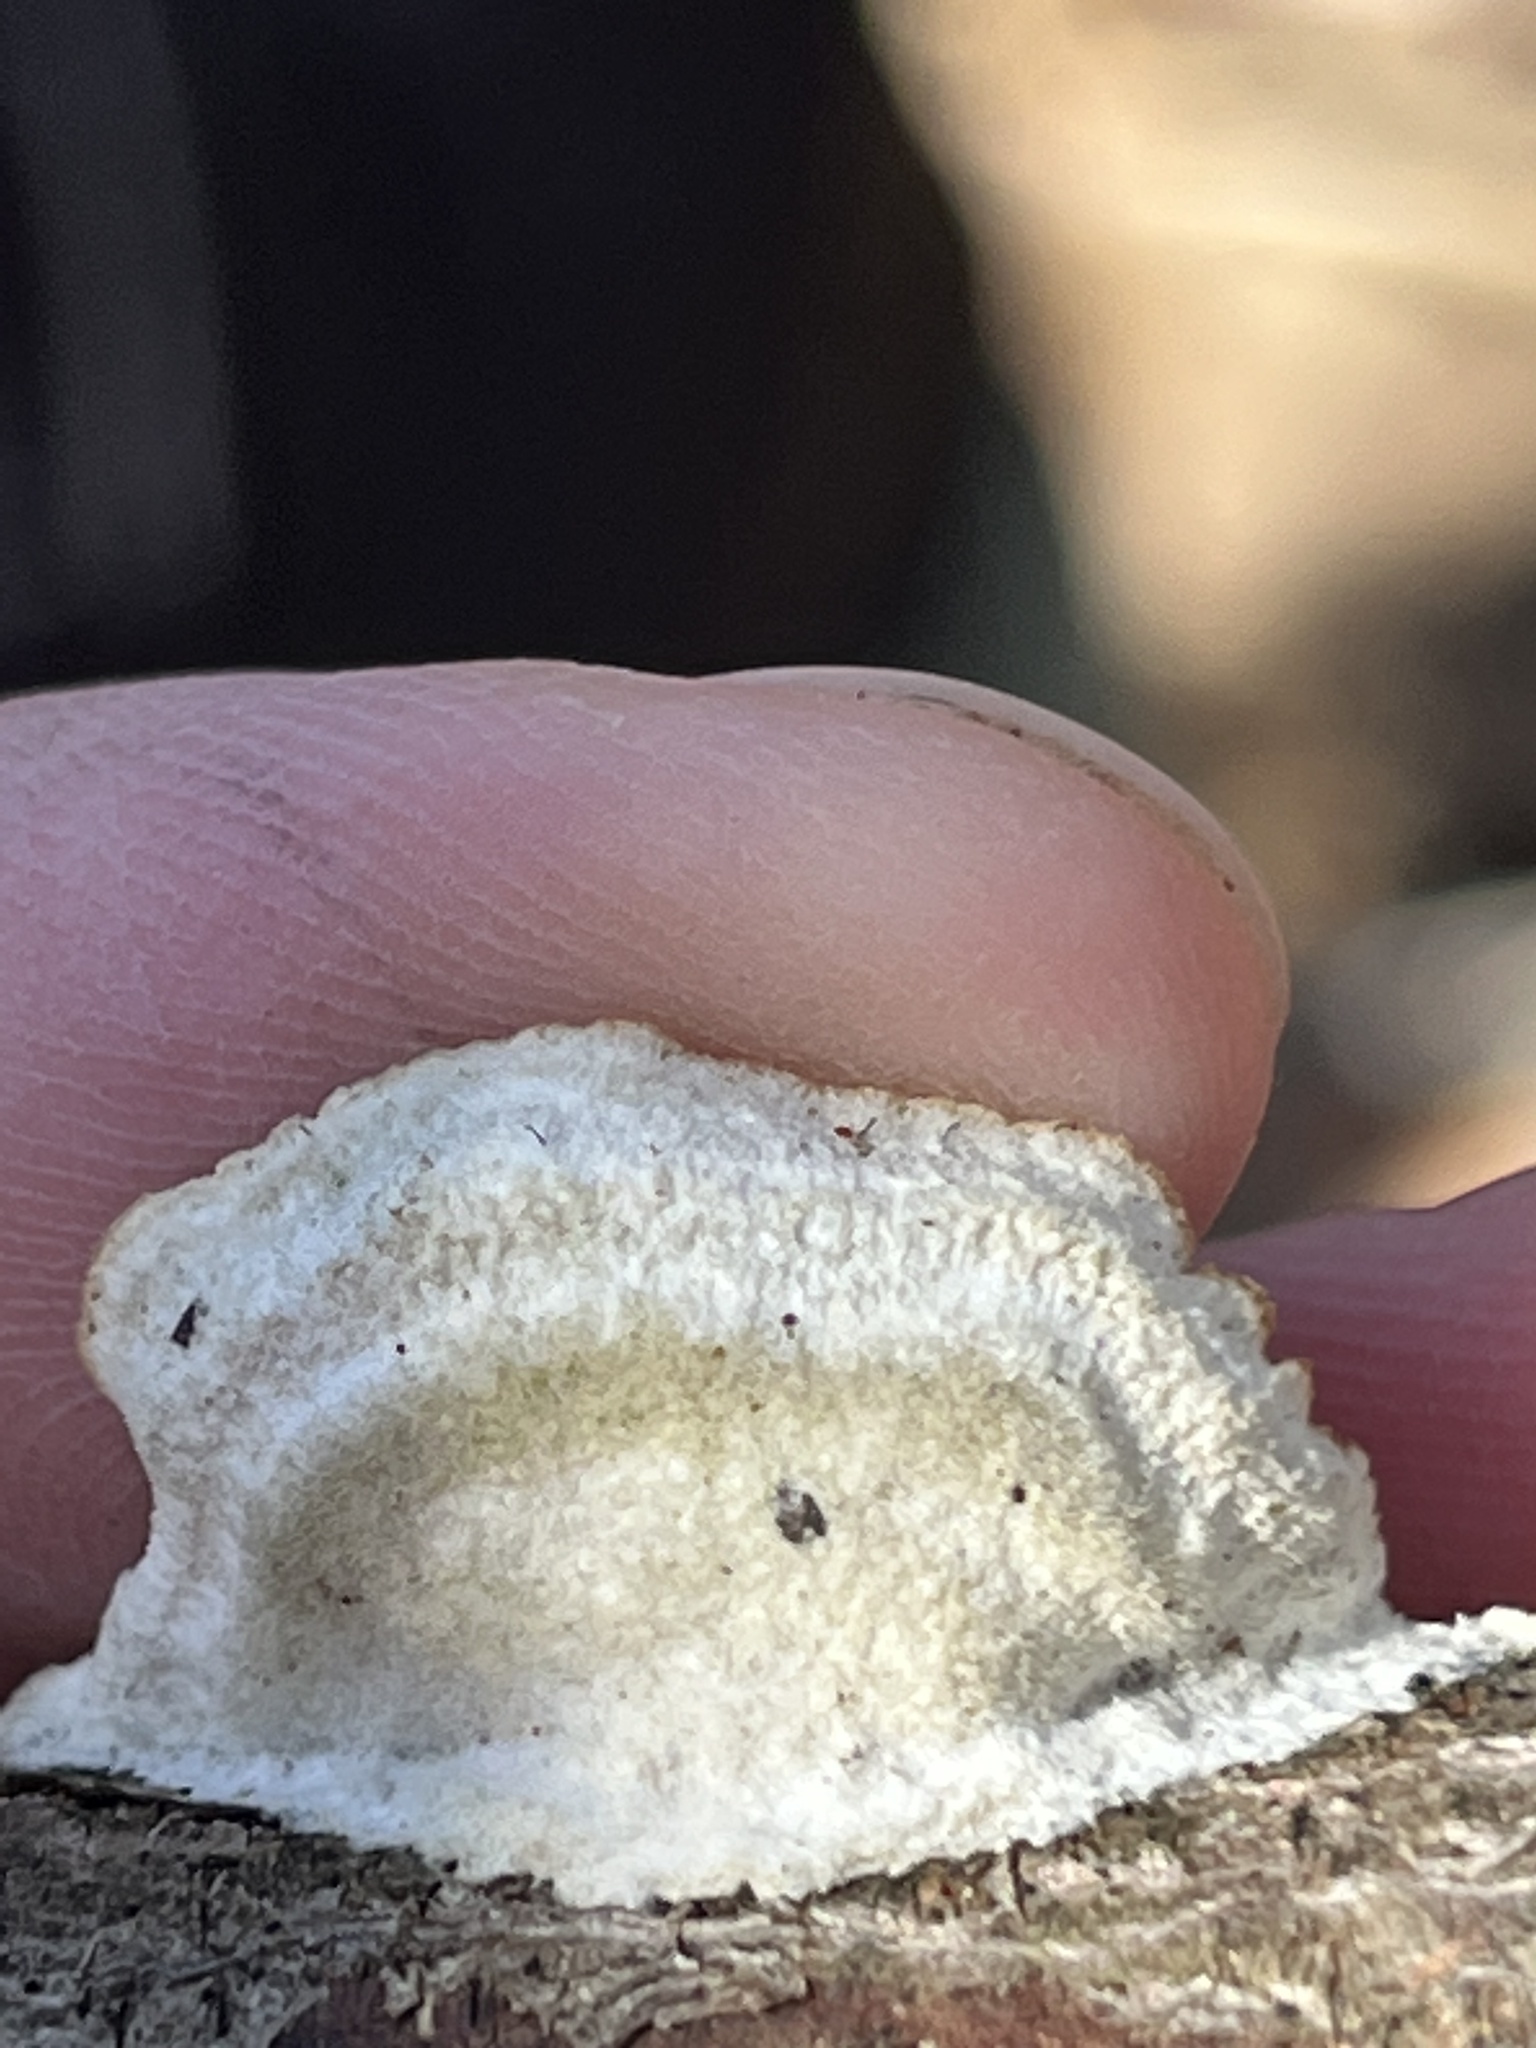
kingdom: Fungi
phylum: Ascomycota
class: Eurotiomycetes
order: Mycocaliciales
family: Mycocaliciaceae
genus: Phaeocalicium
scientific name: Phaeocalicium polyporaeum
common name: Fairy pins
